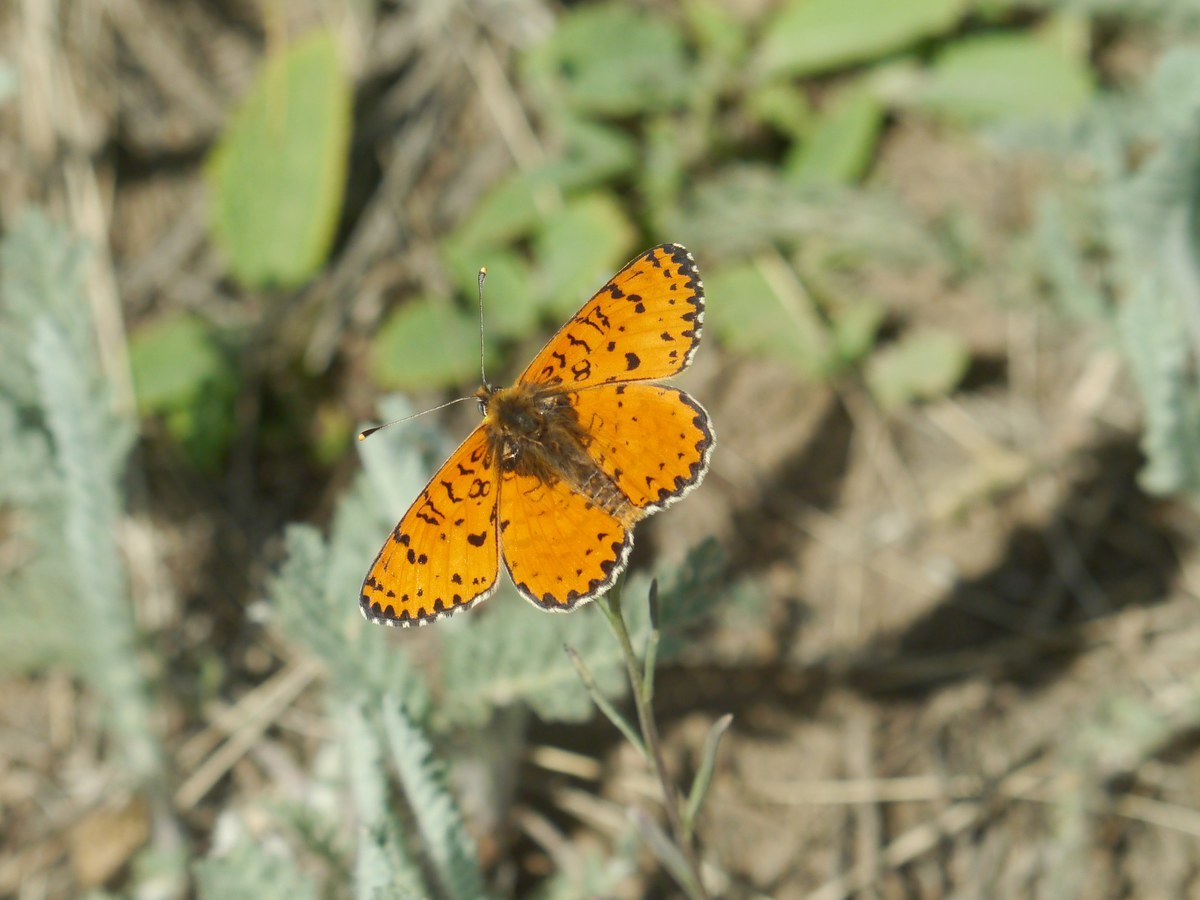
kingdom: Animalia
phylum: Arthropoda
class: Insecta
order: Lepidoptera
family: Nymphalidae
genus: Melitaea
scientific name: Melitaea didyma
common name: Spotted fritillary
